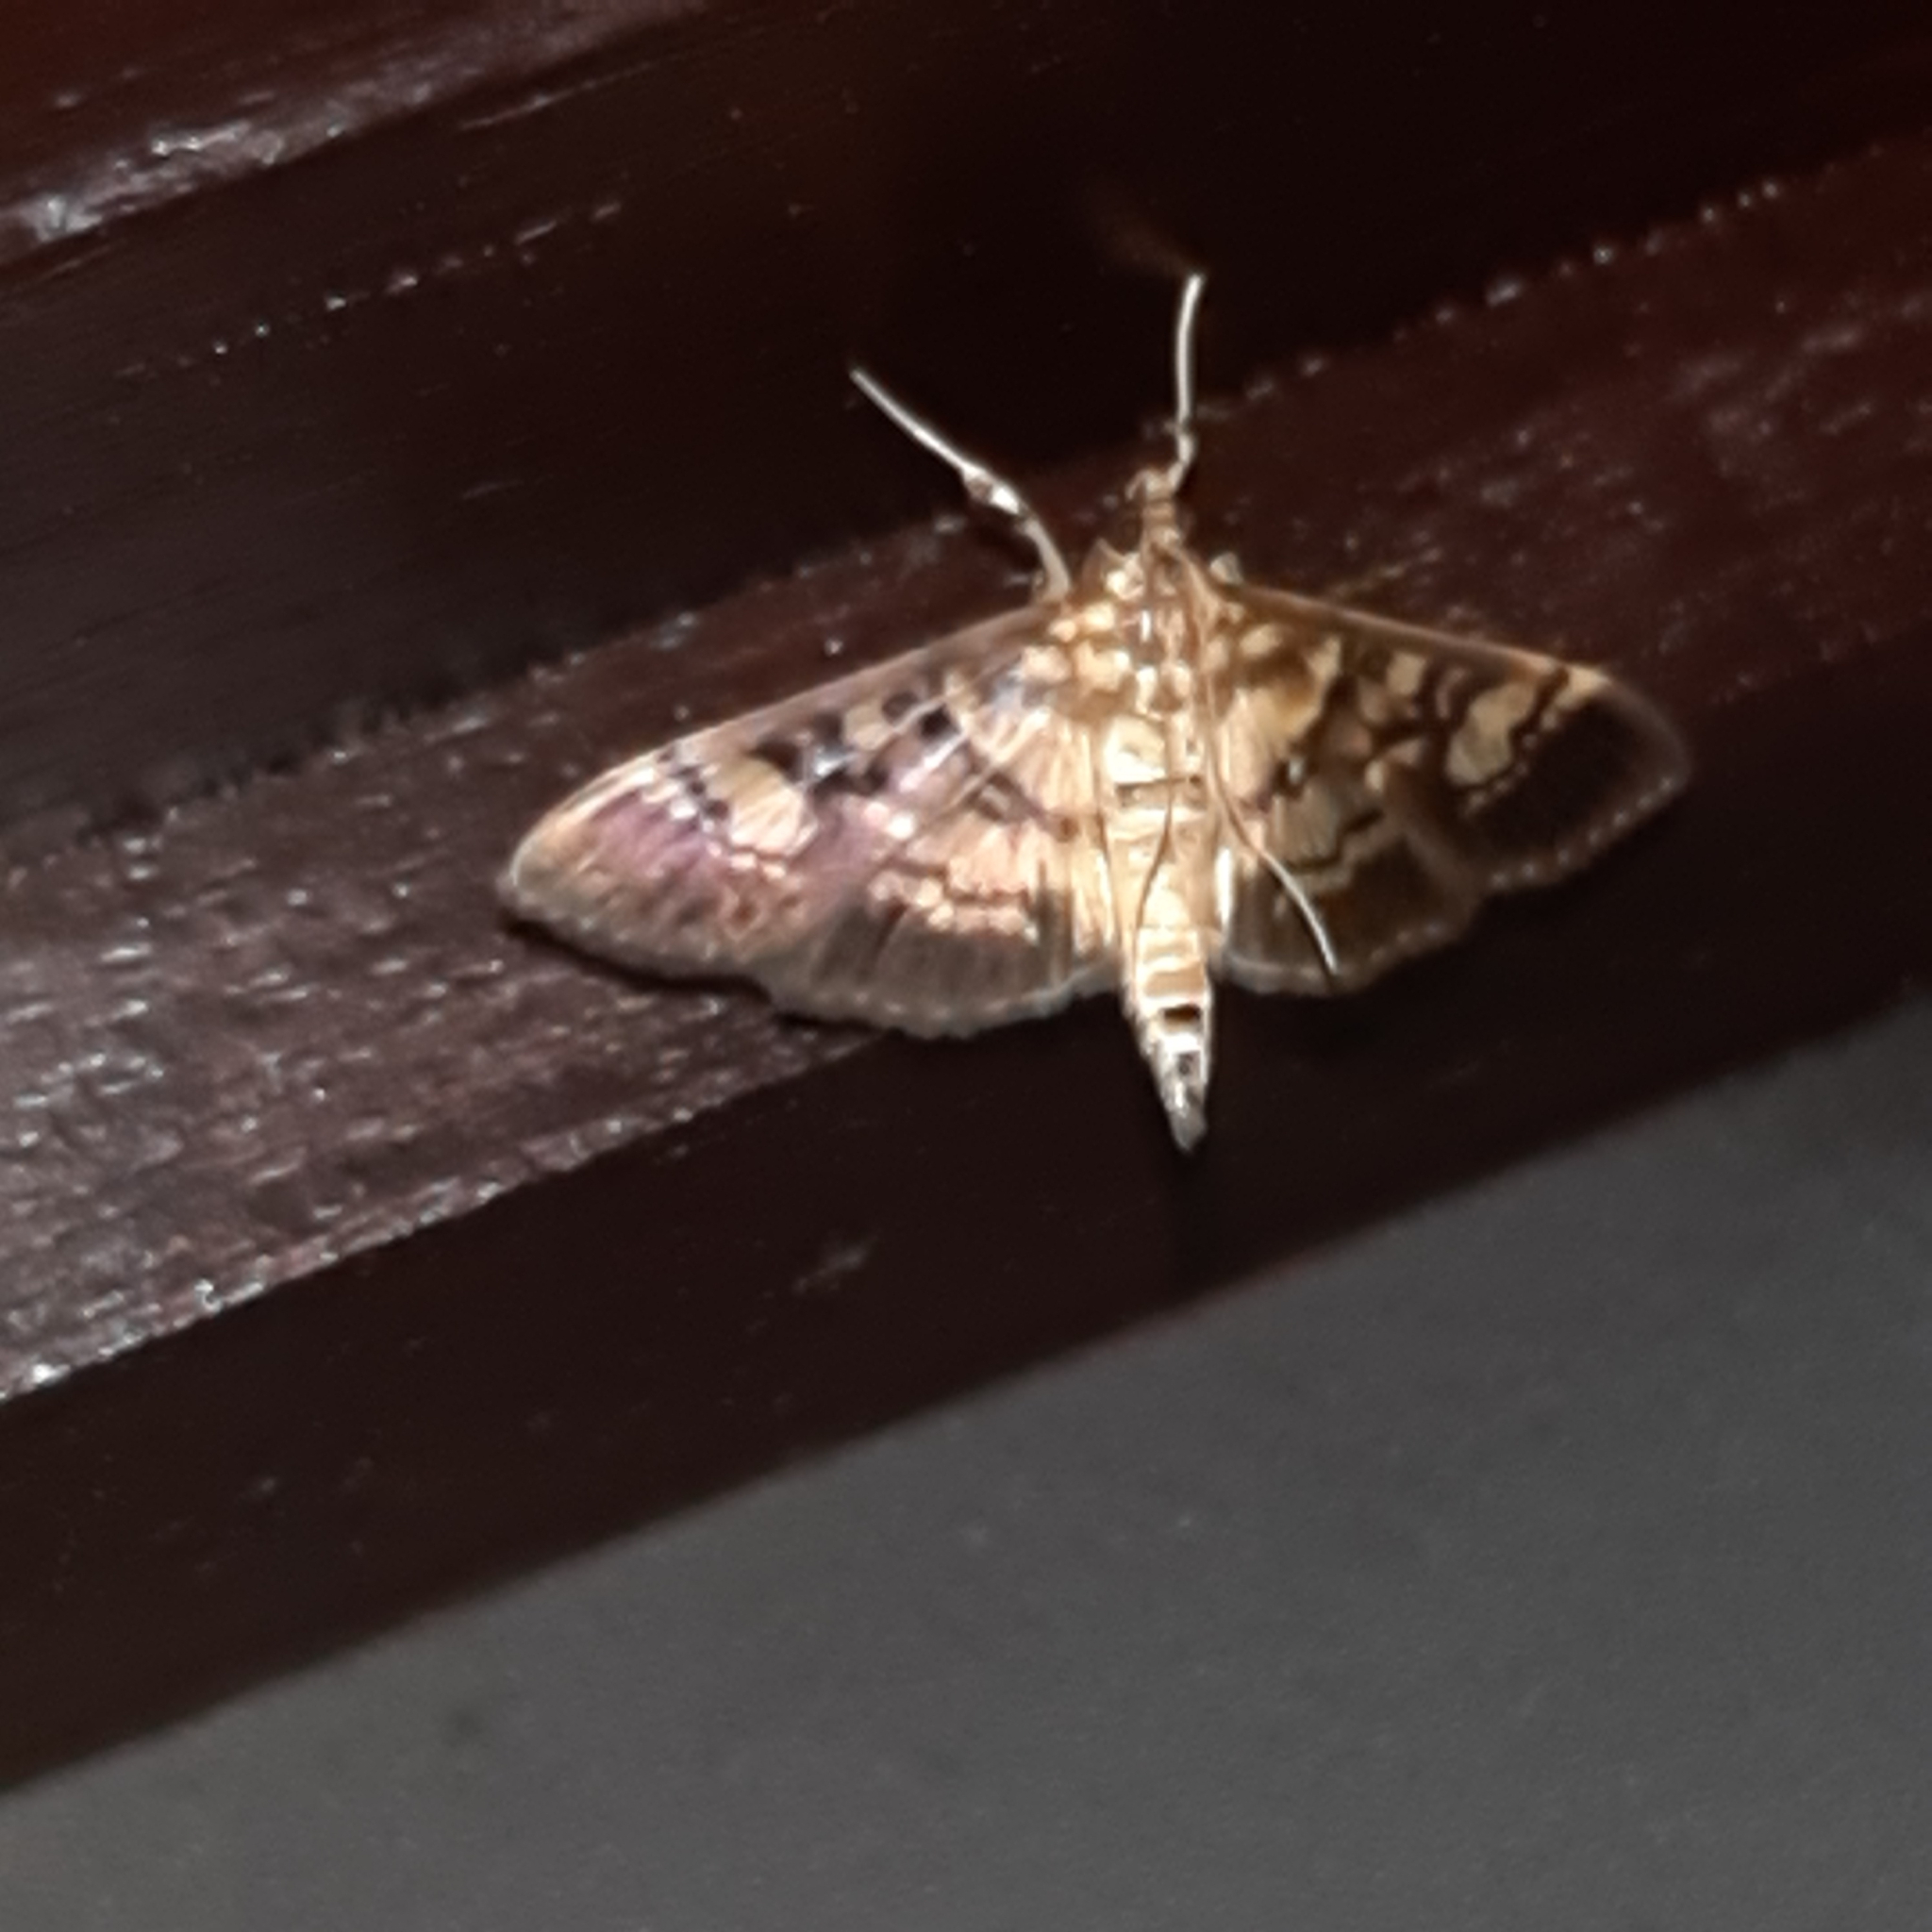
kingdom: Animalia
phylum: Arthropoda
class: Insecta
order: Lepidoptera
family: Crambidae
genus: Salbia
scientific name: Salbia
